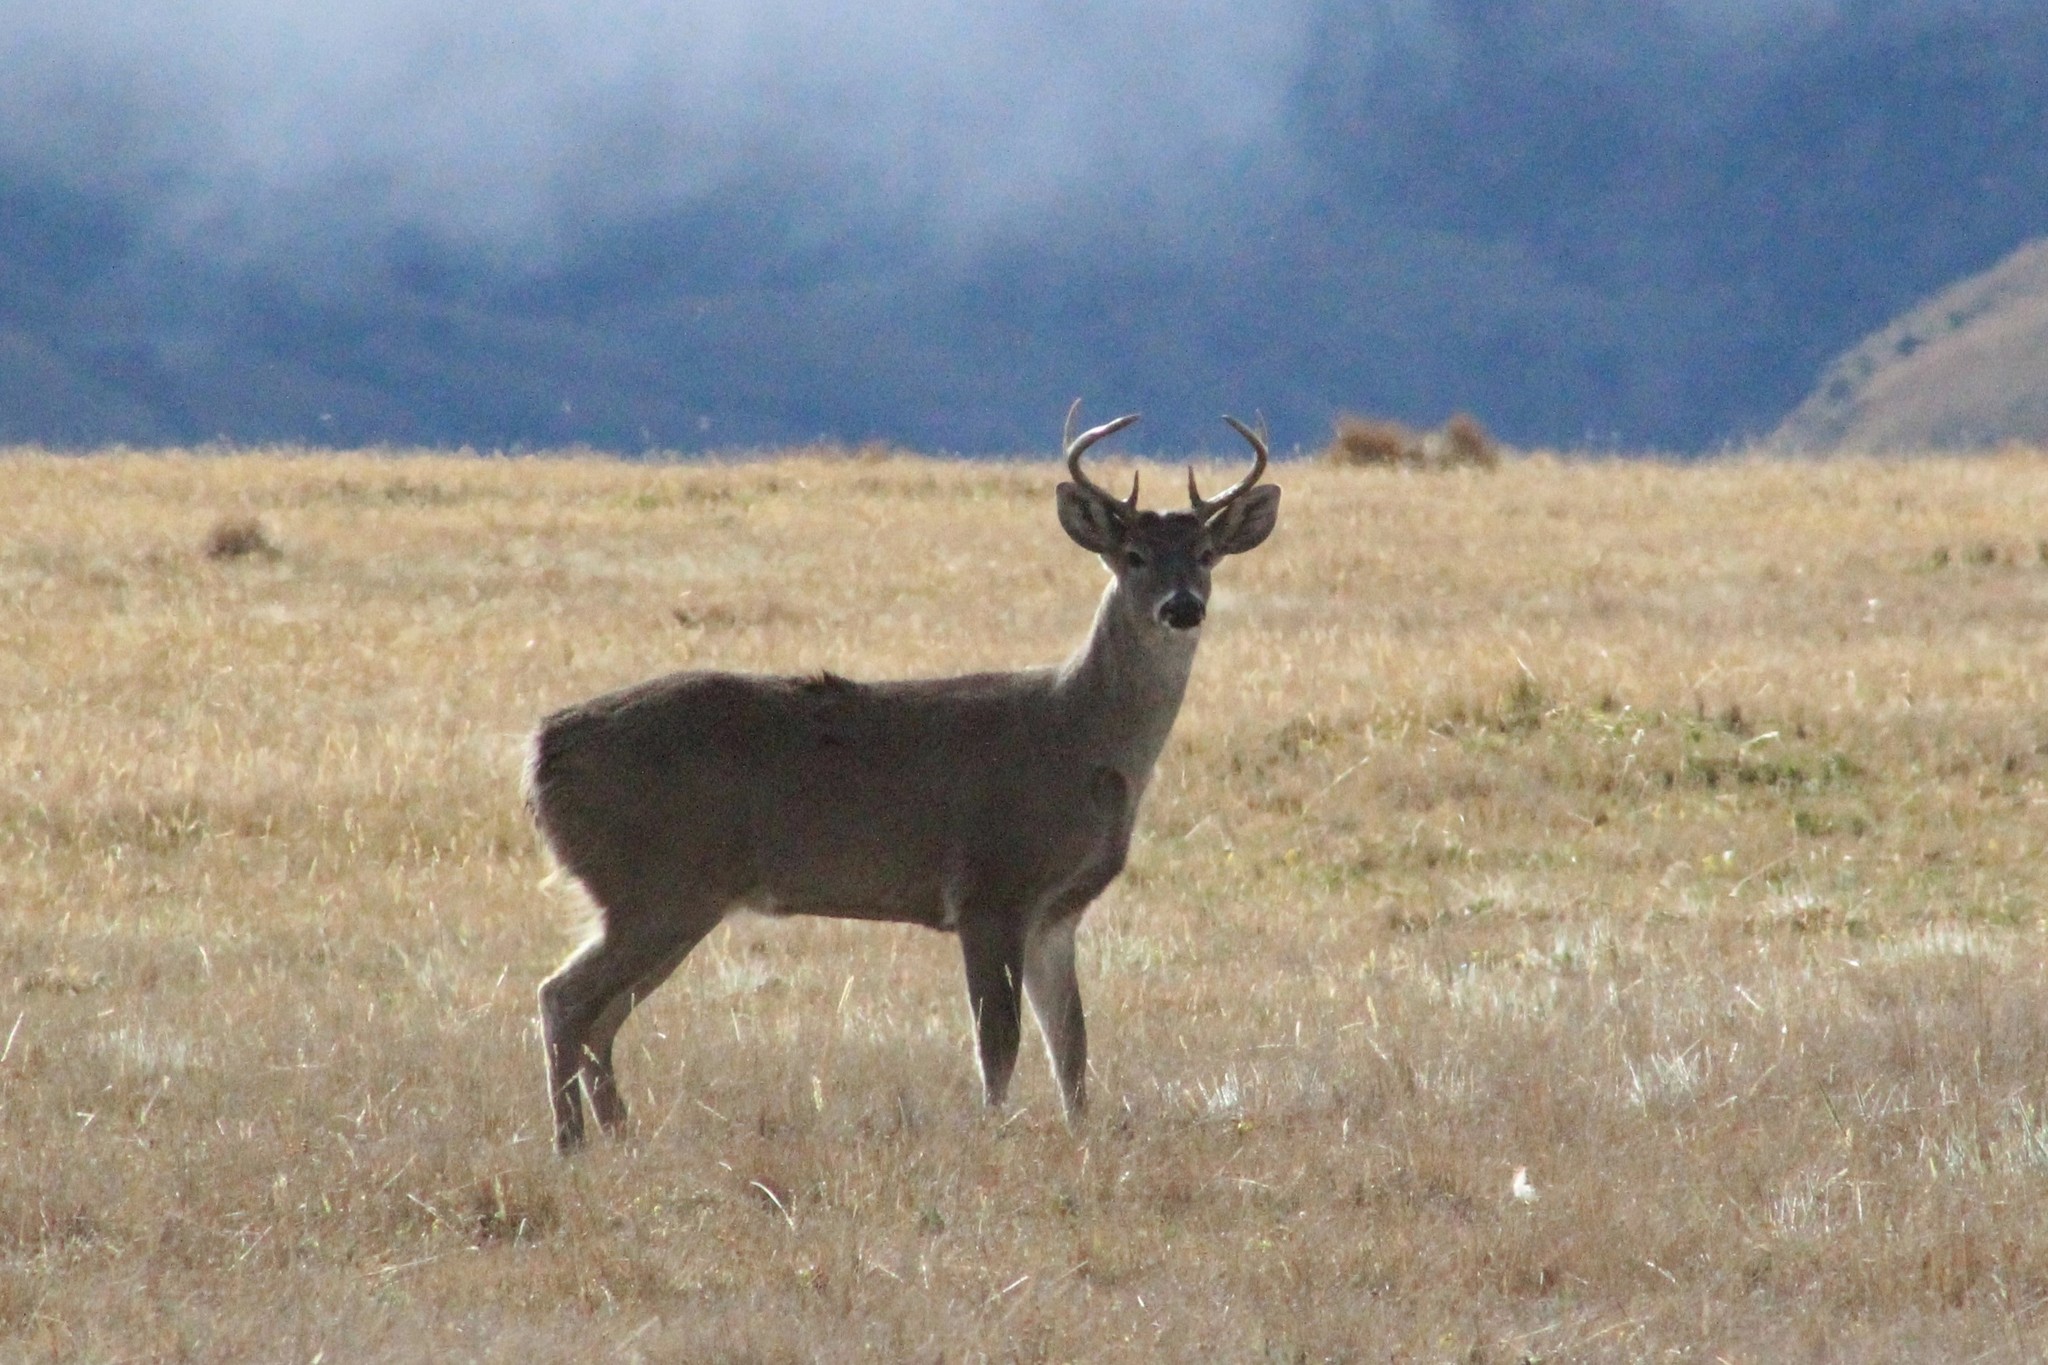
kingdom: Animalia
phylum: Chordata
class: Mammalia
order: Artiodactyla
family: Cervidae
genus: Odocoileus
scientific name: Odocoileus virginianus
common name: White-tailed deer
